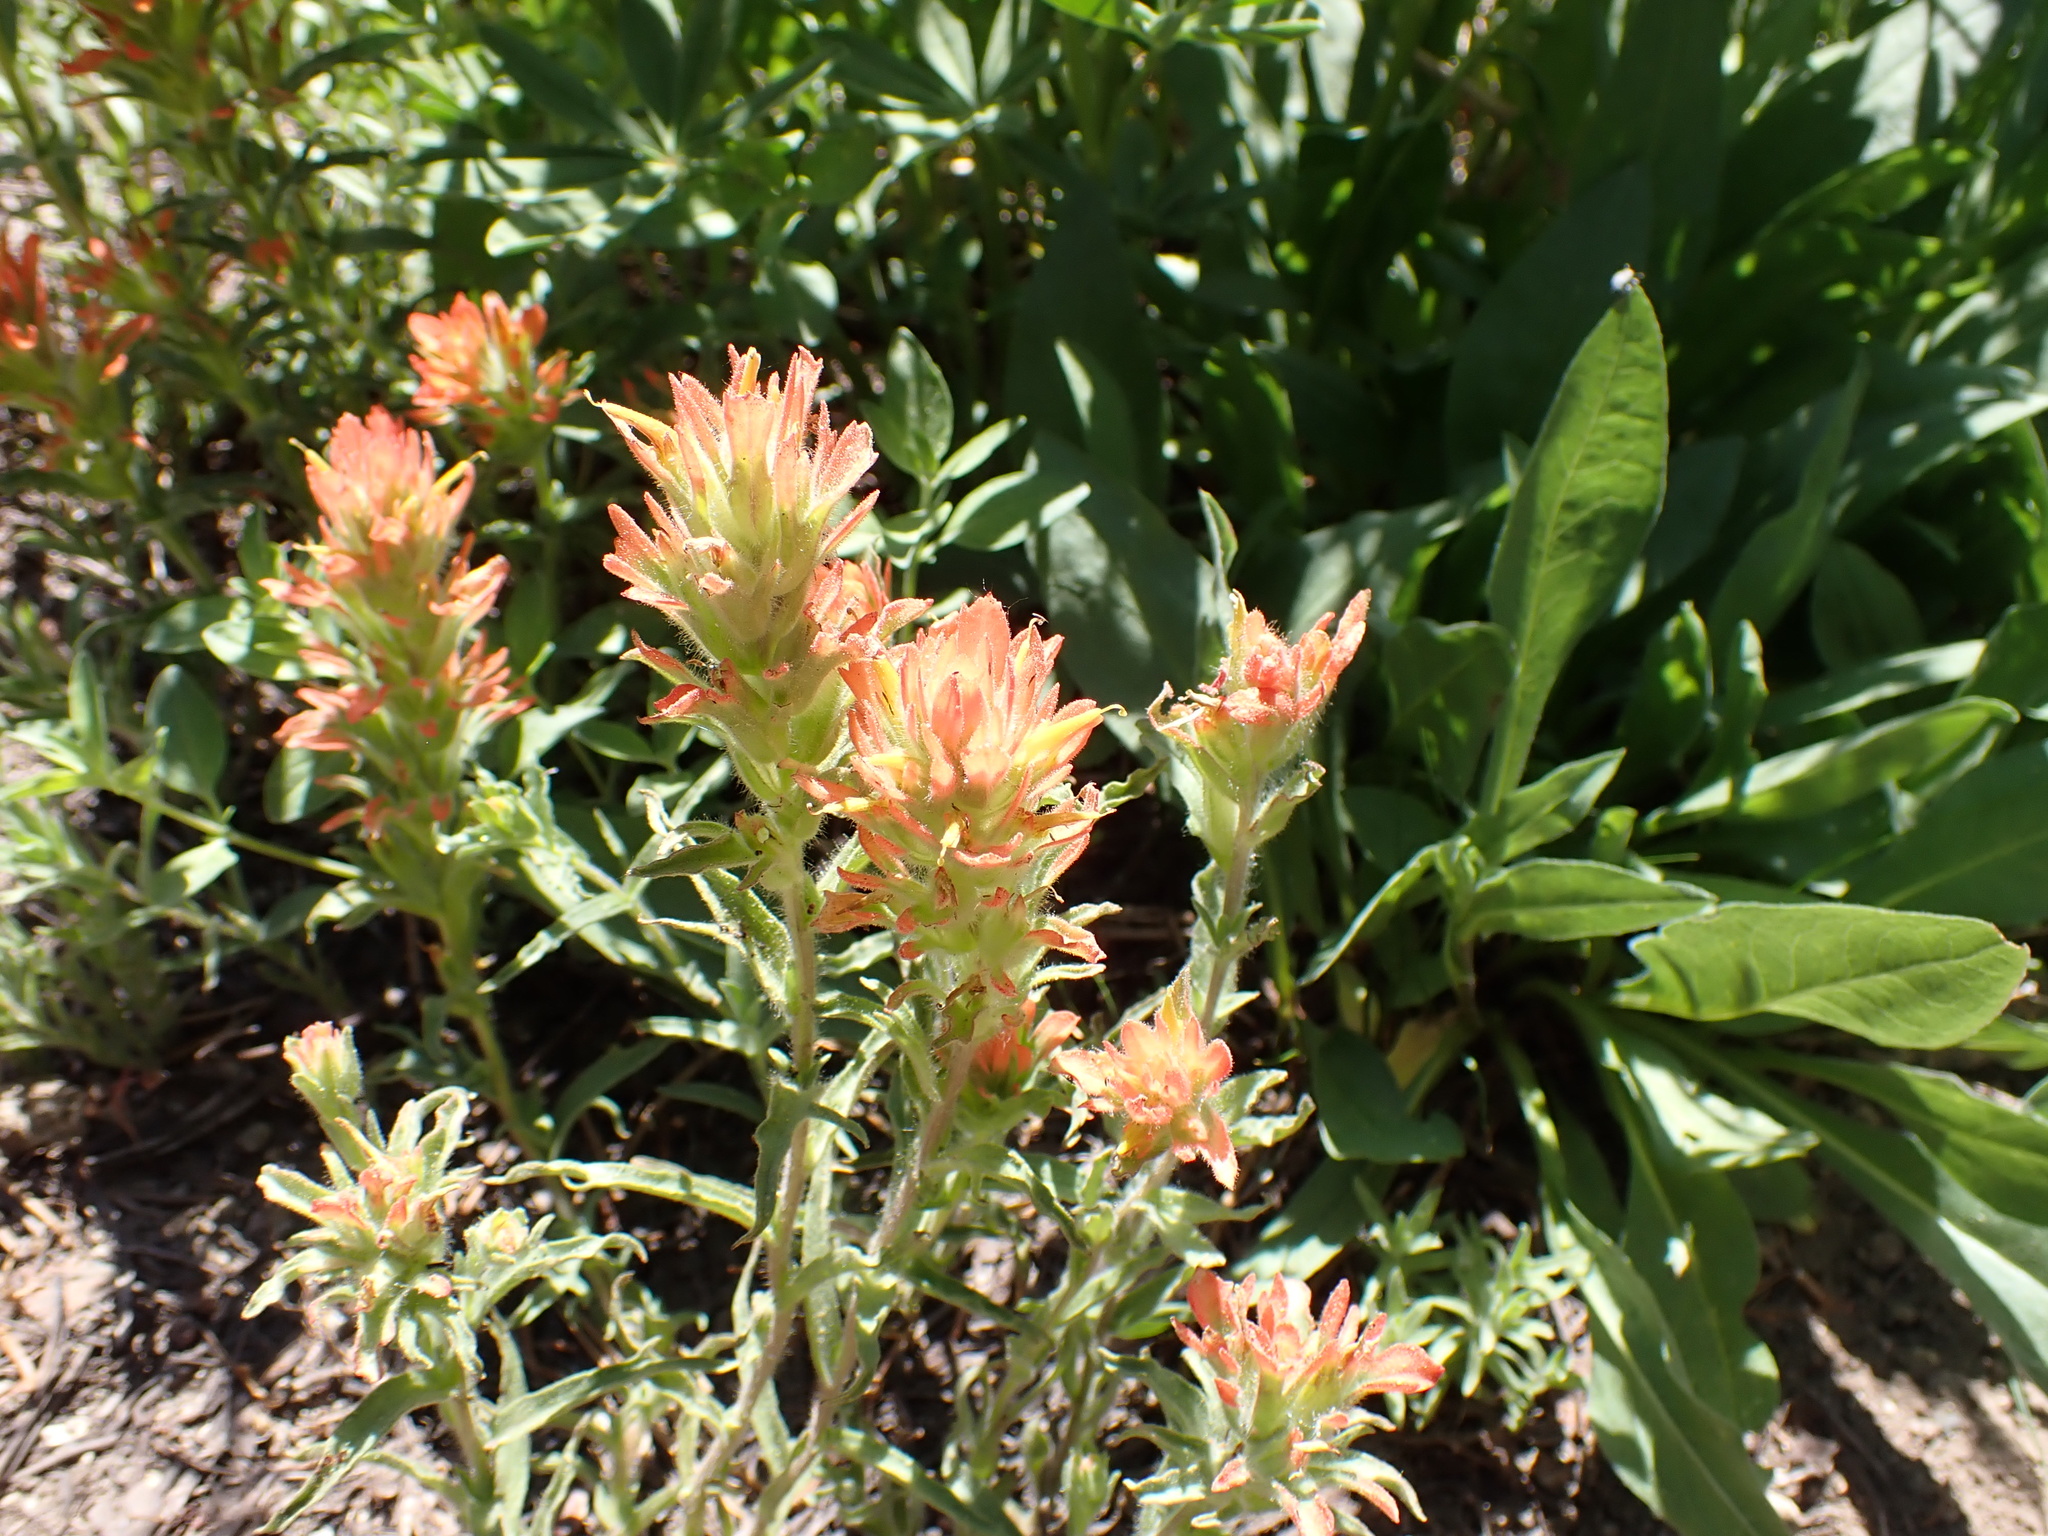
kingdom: Plantae
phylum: Tracheophyta
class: Magnoliopsida
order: Lamiales
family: Orobanchaceae
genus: Castilleja
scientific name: Castilleja applegatei
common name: Wavy-leaf paintbrush
